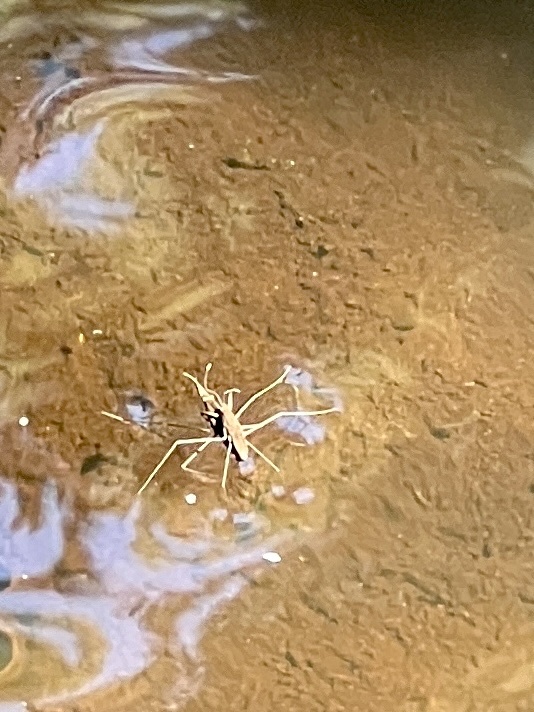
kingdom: Animalia
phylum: Arthropoda
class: Insecta
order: Hemiptera
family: Gerridae
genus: Aquarius
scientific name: Aquarius remigis
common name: Common water strider
